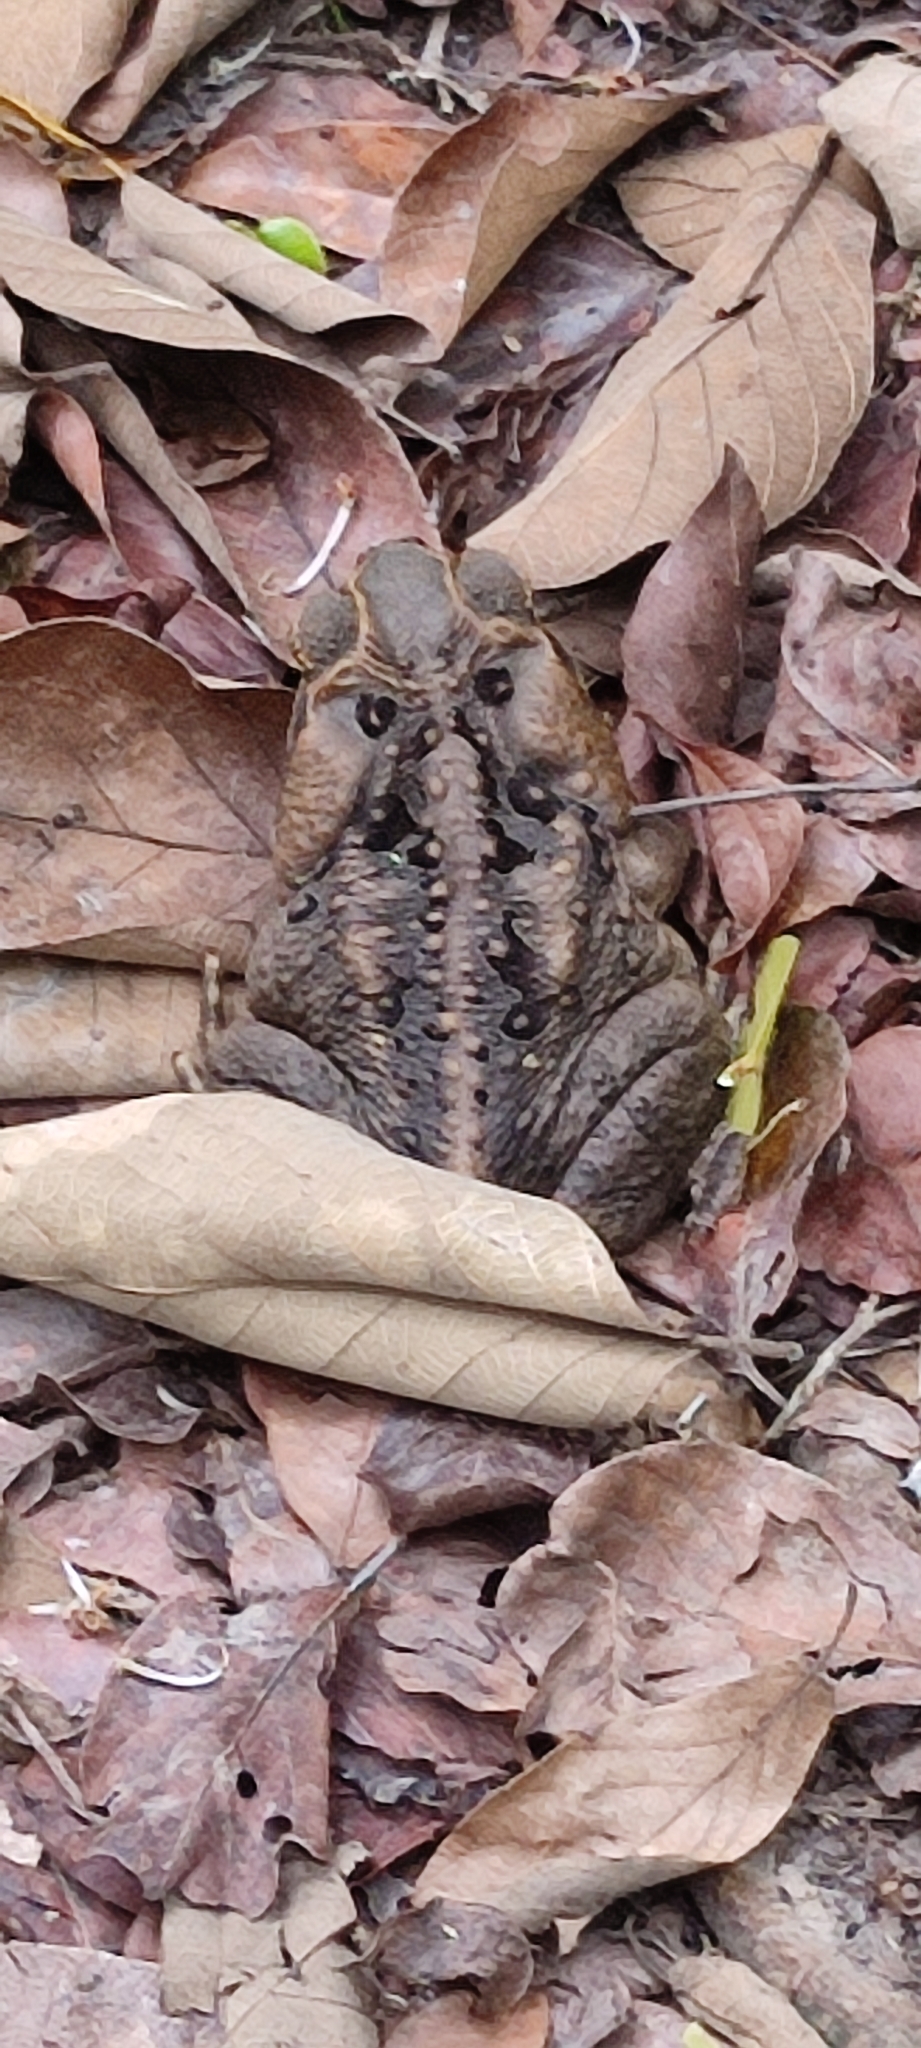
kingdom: Animalia
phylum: Chordata
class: Amphibia
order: Anura
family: Bufonidae
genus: Rhinella
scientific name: Rhinella marina
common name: Cane toad
